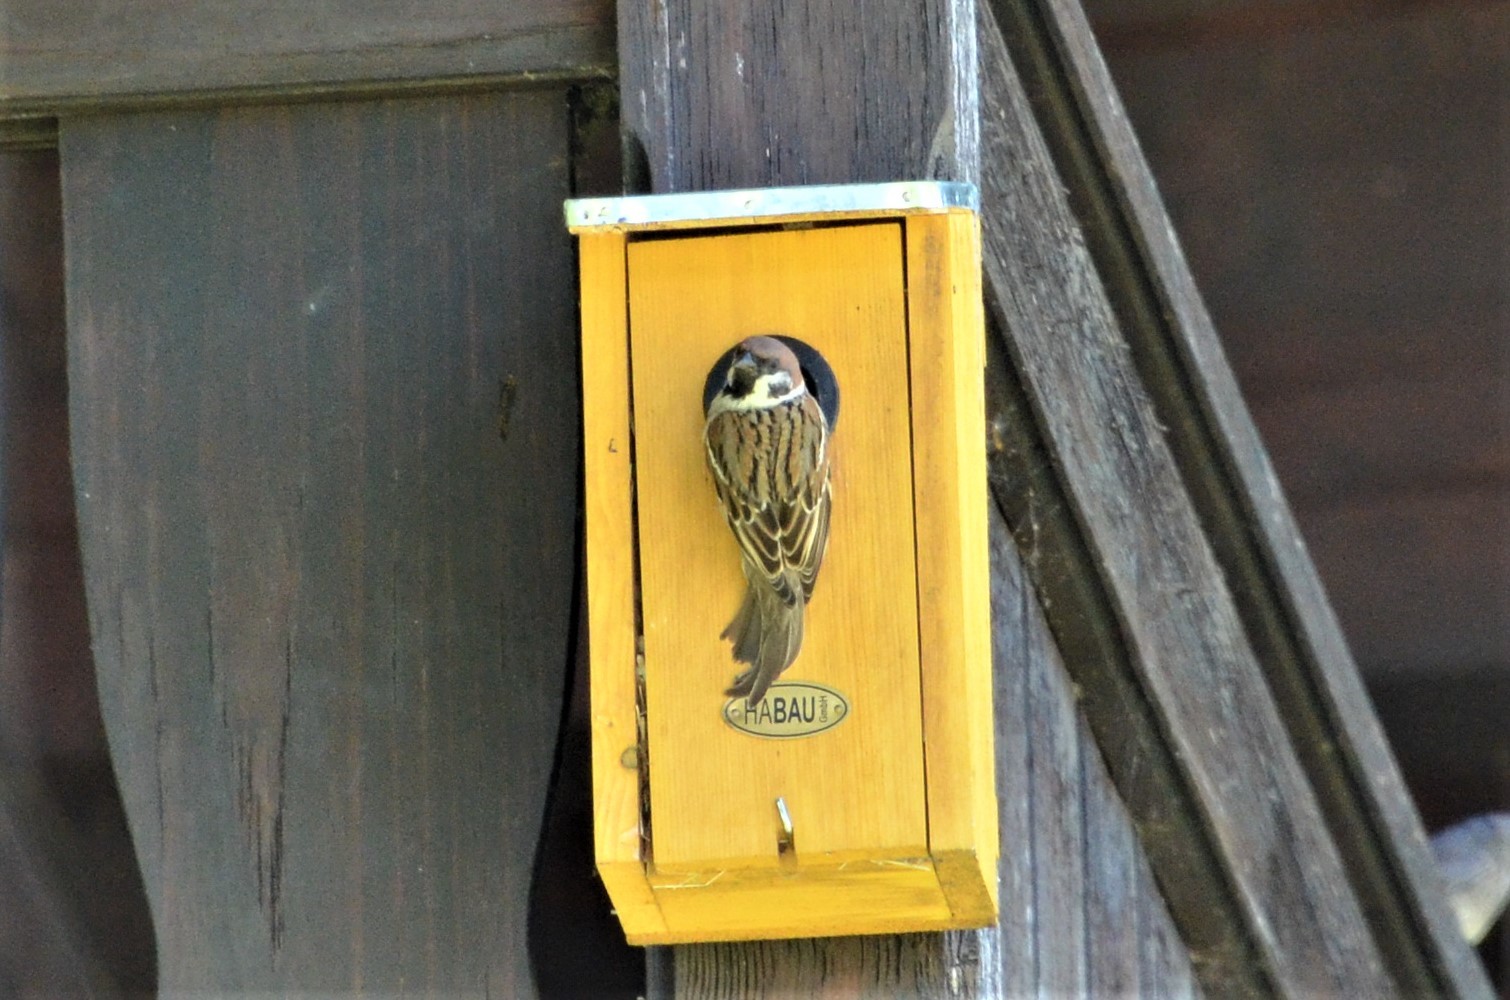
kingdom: Animalia
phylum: Chordata
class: Aves
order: Passeriformes
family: Passeridae
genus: Passer
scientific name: Passer montanus
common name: Eurasian tree sparrow
